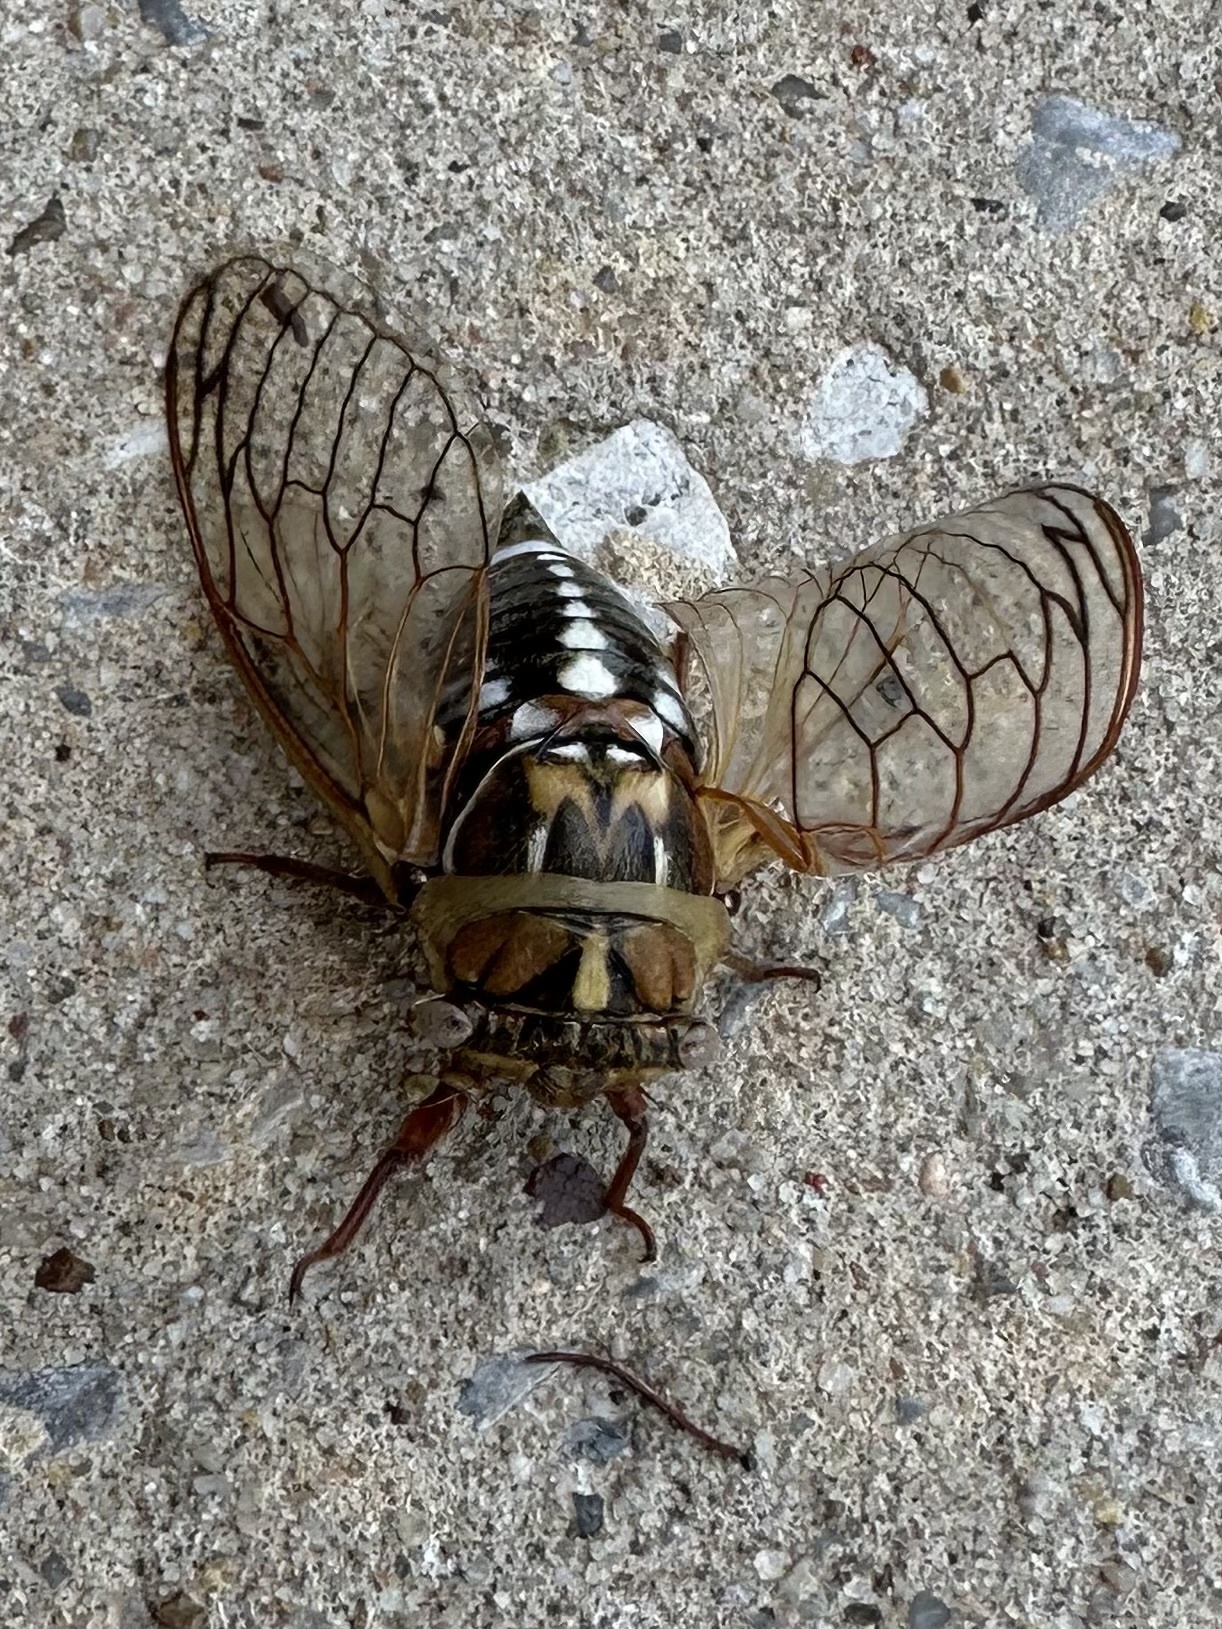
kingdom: Animalia
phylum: Arthropoda
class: Insecta
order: Hemiptera
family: Cicadidae
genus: Megatibicen
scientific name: Megatibicen dorsatus
